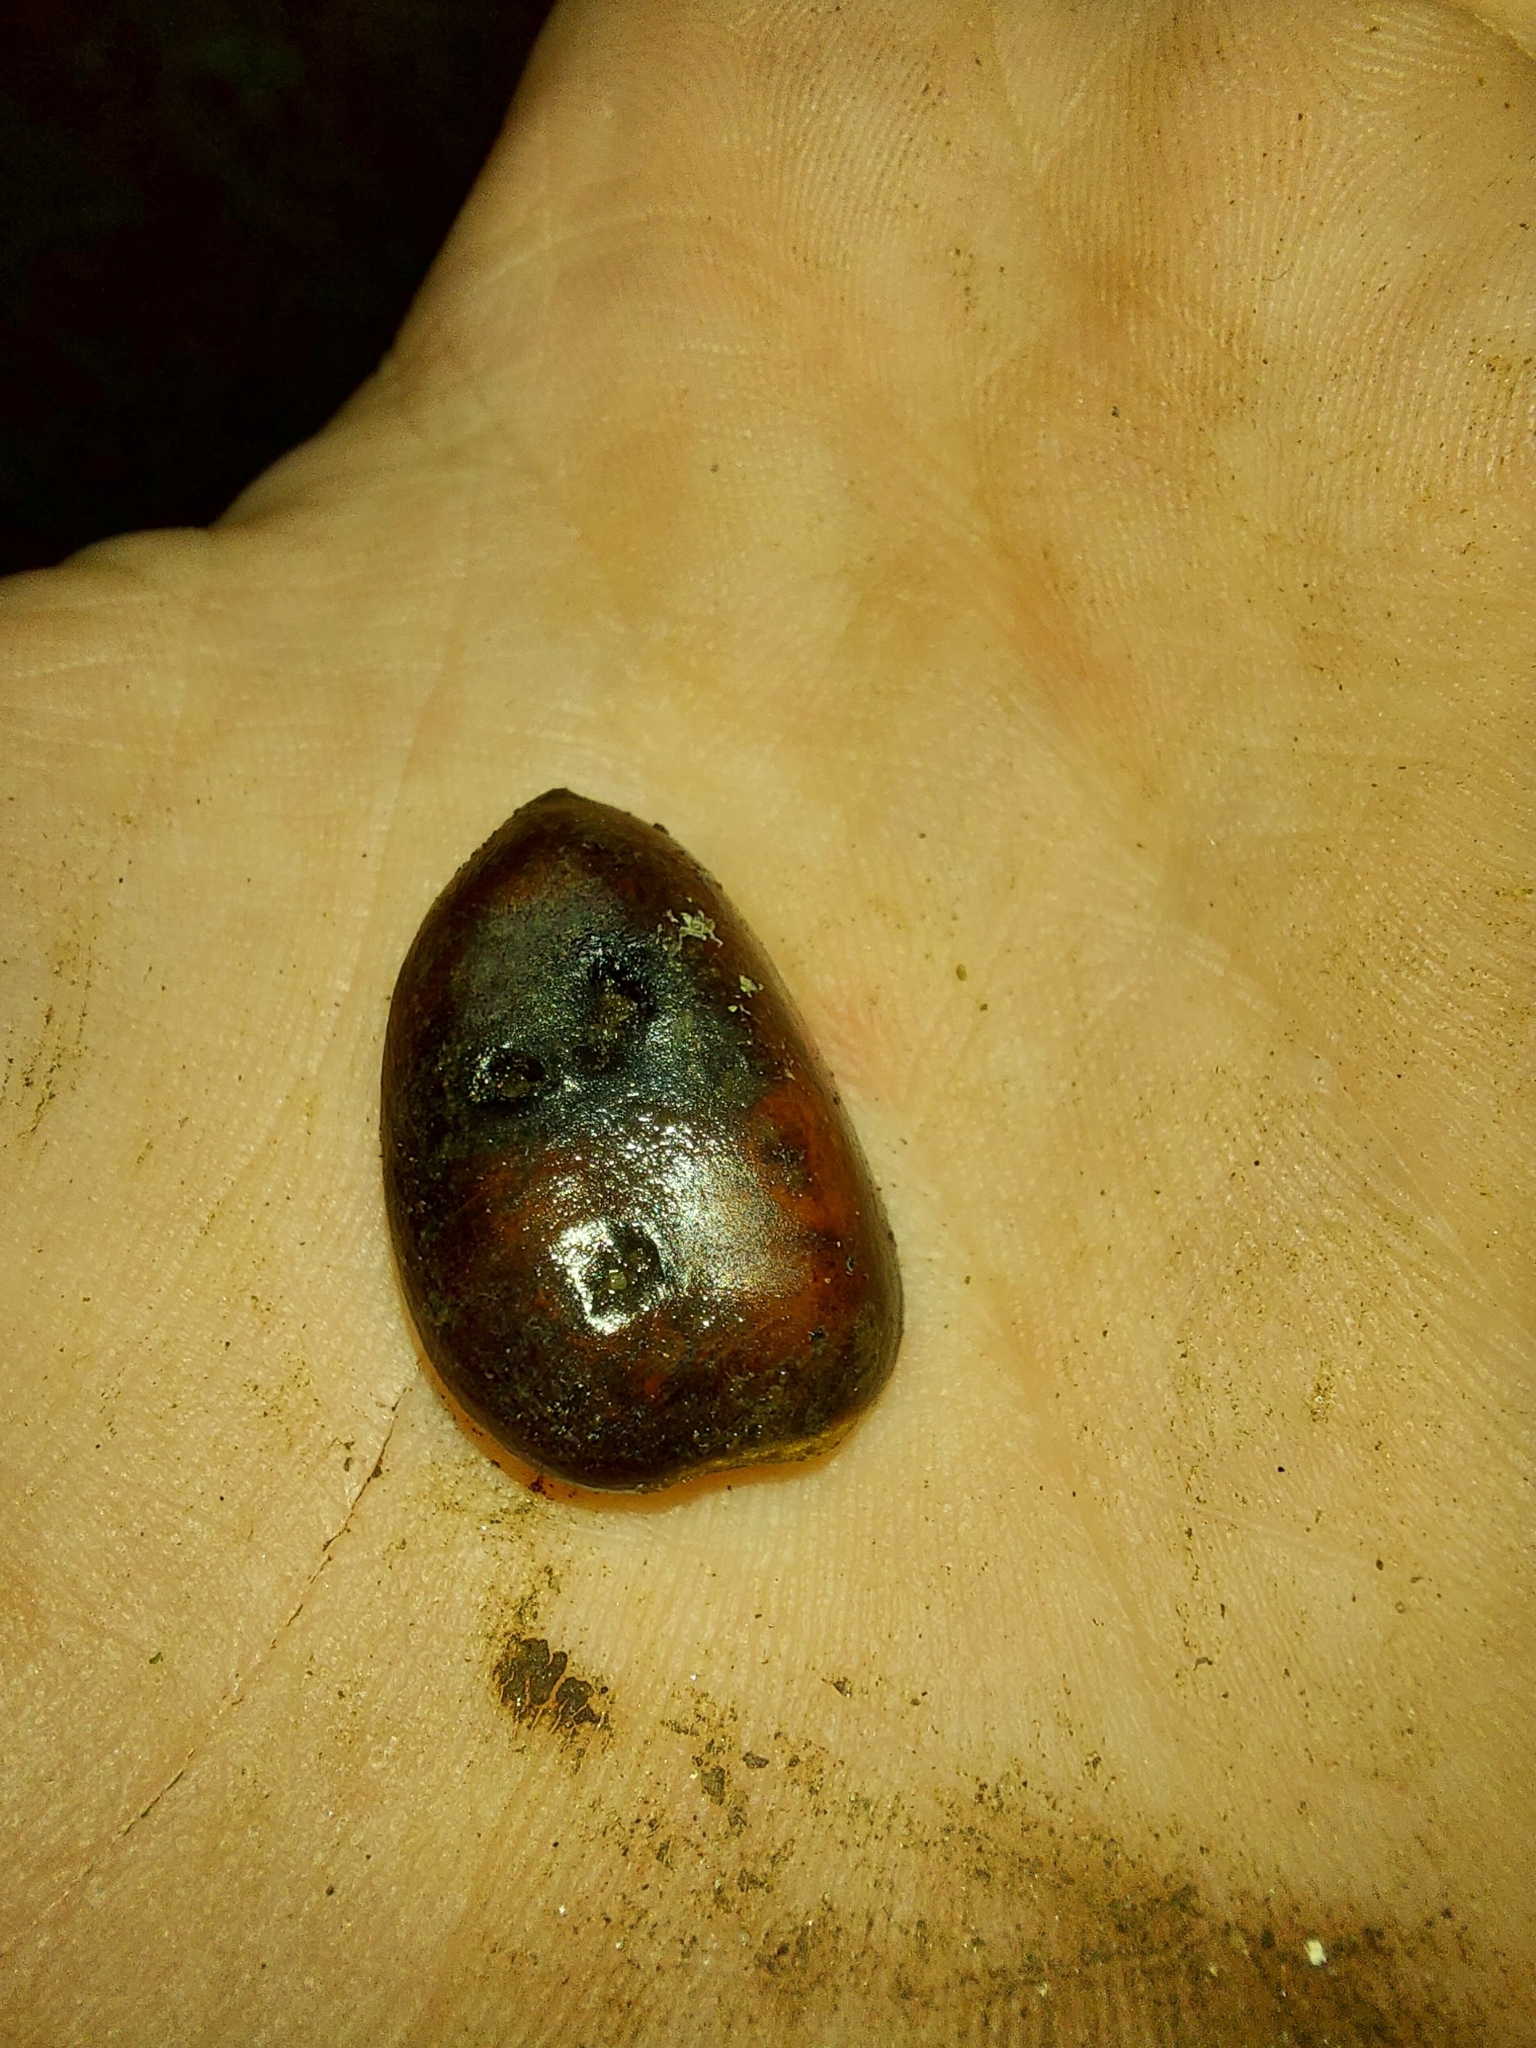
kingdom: Plantae
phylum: Tracheophyta
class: Magnoliopsida
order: Magnoliales
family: Annonaceae
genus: Asimina
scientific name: Asimina triloba
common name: Dog-banana
